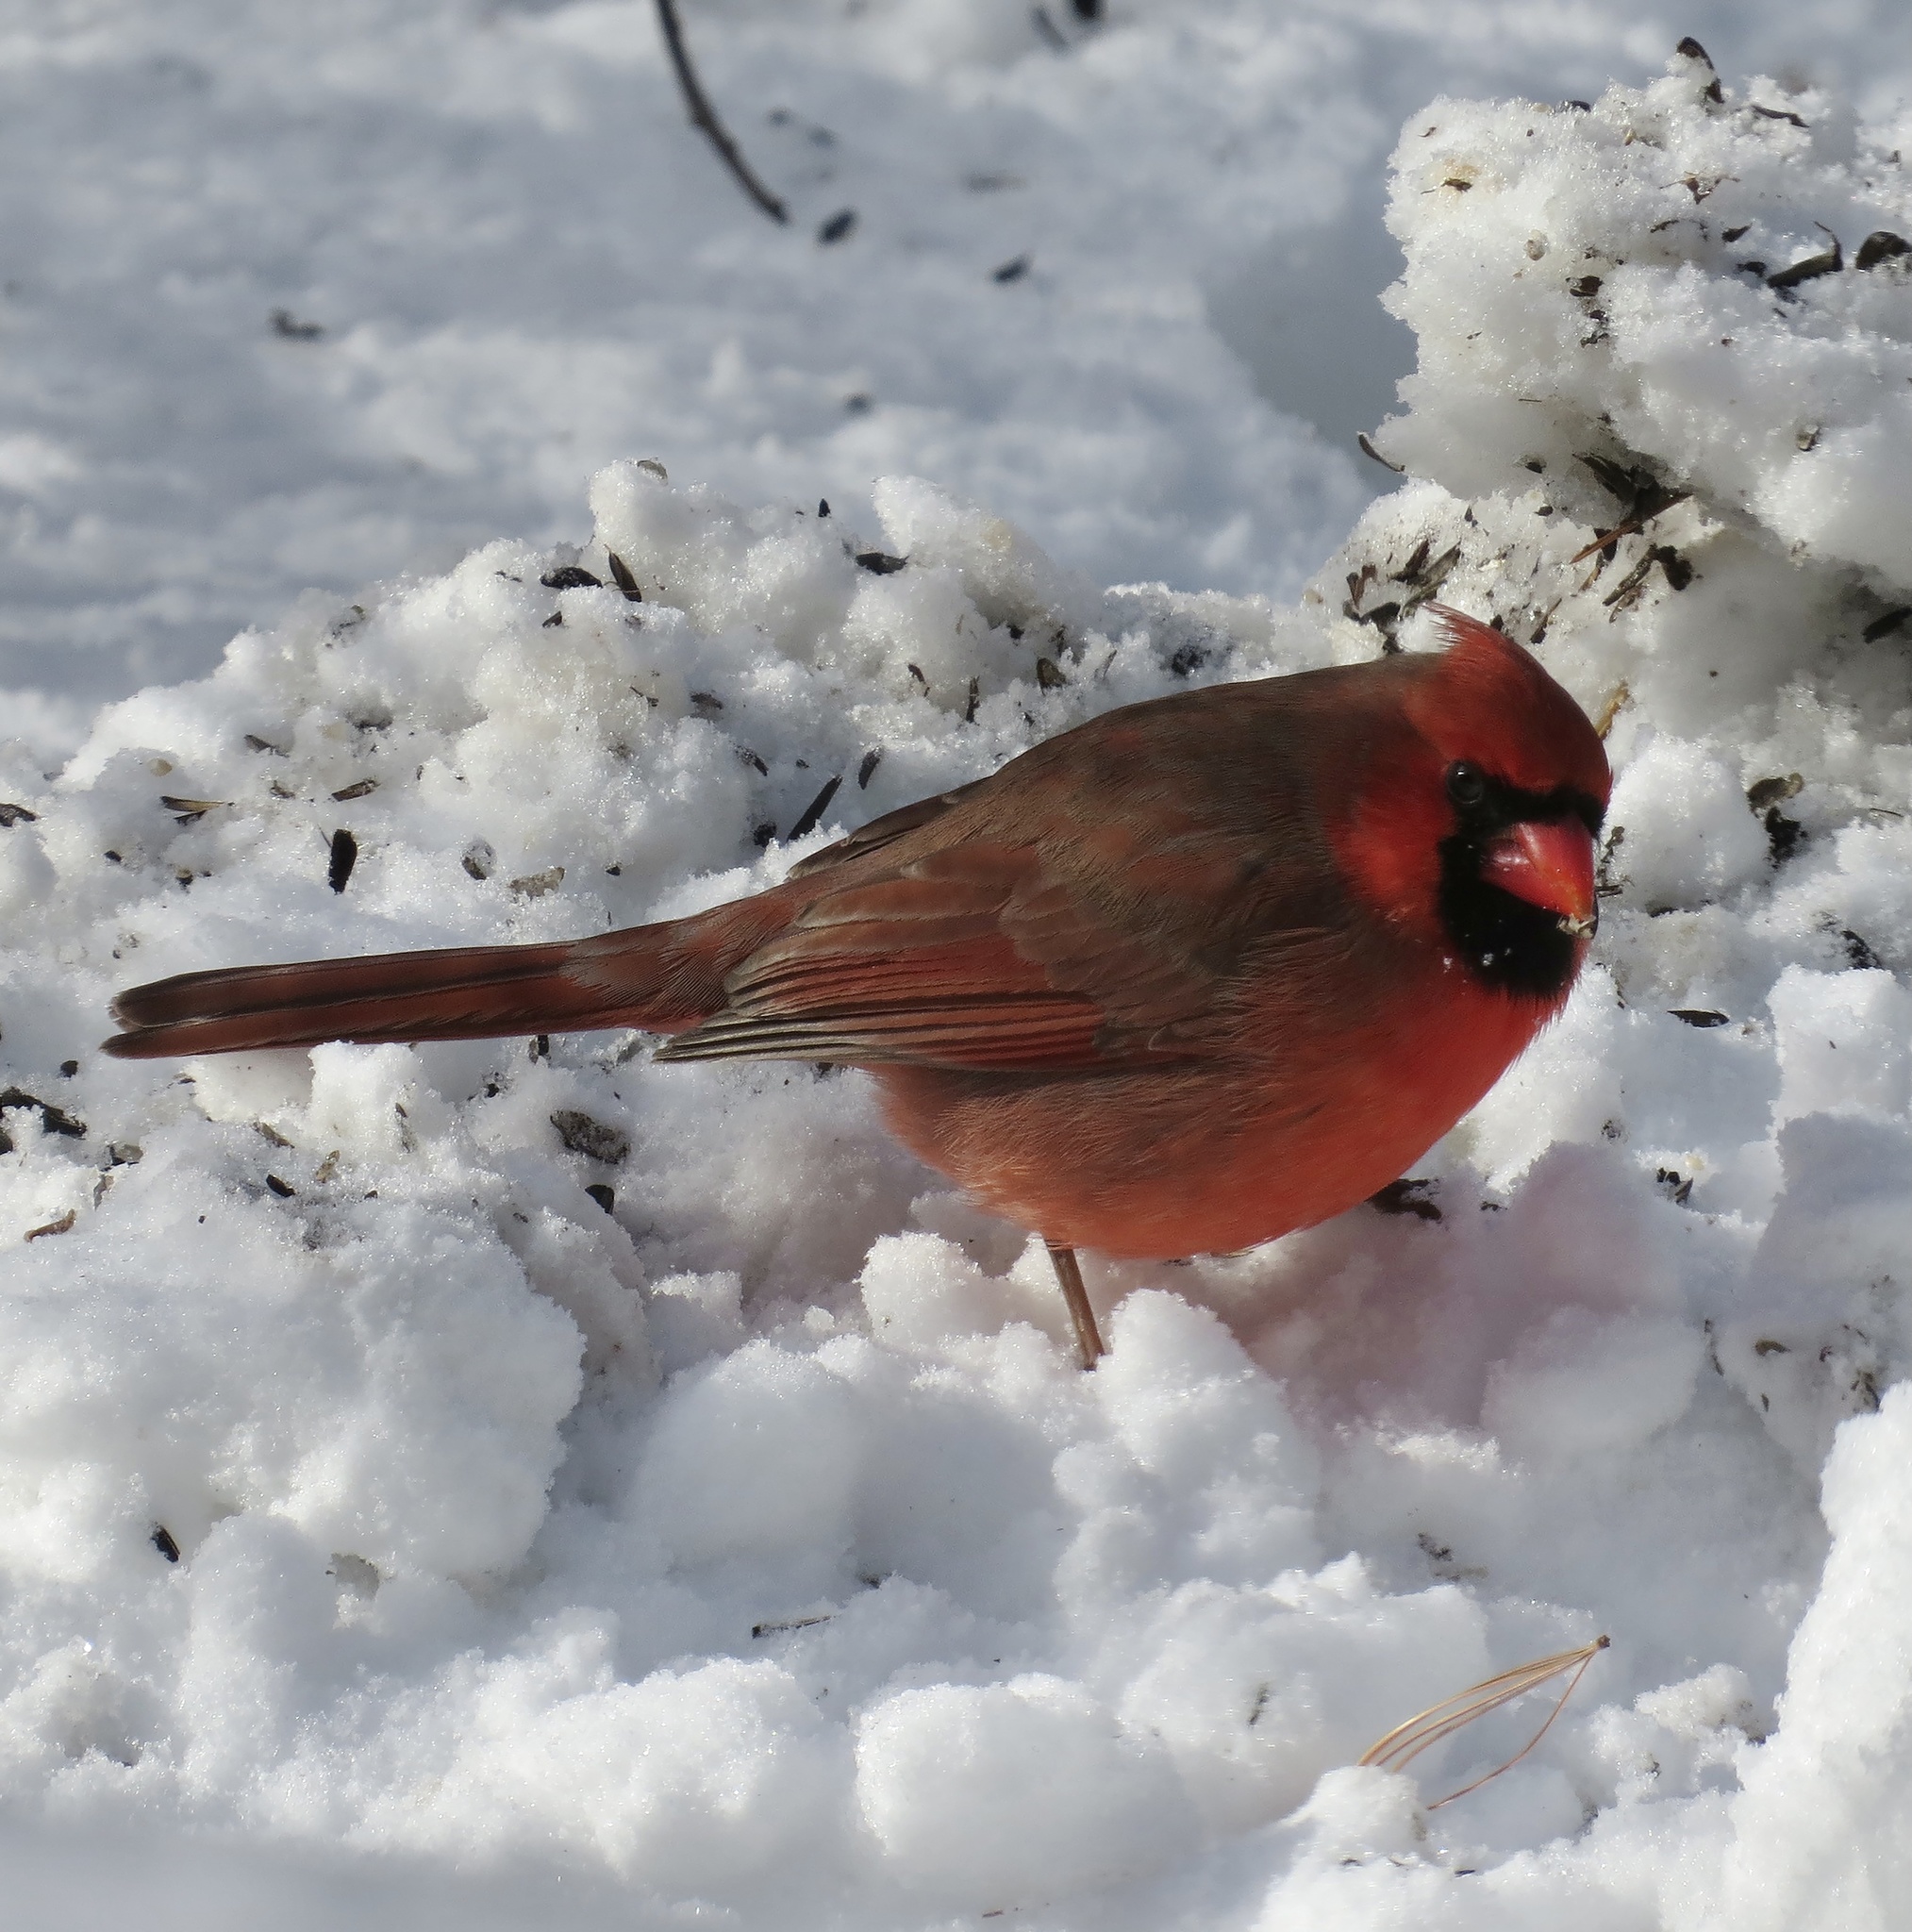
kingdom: Animalia
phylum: Chordata
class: Aves
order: Passeriformes
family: Cardinalidae
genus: Cardinalis
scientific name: Cardinalis cardinalis
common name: Northern cardinal
